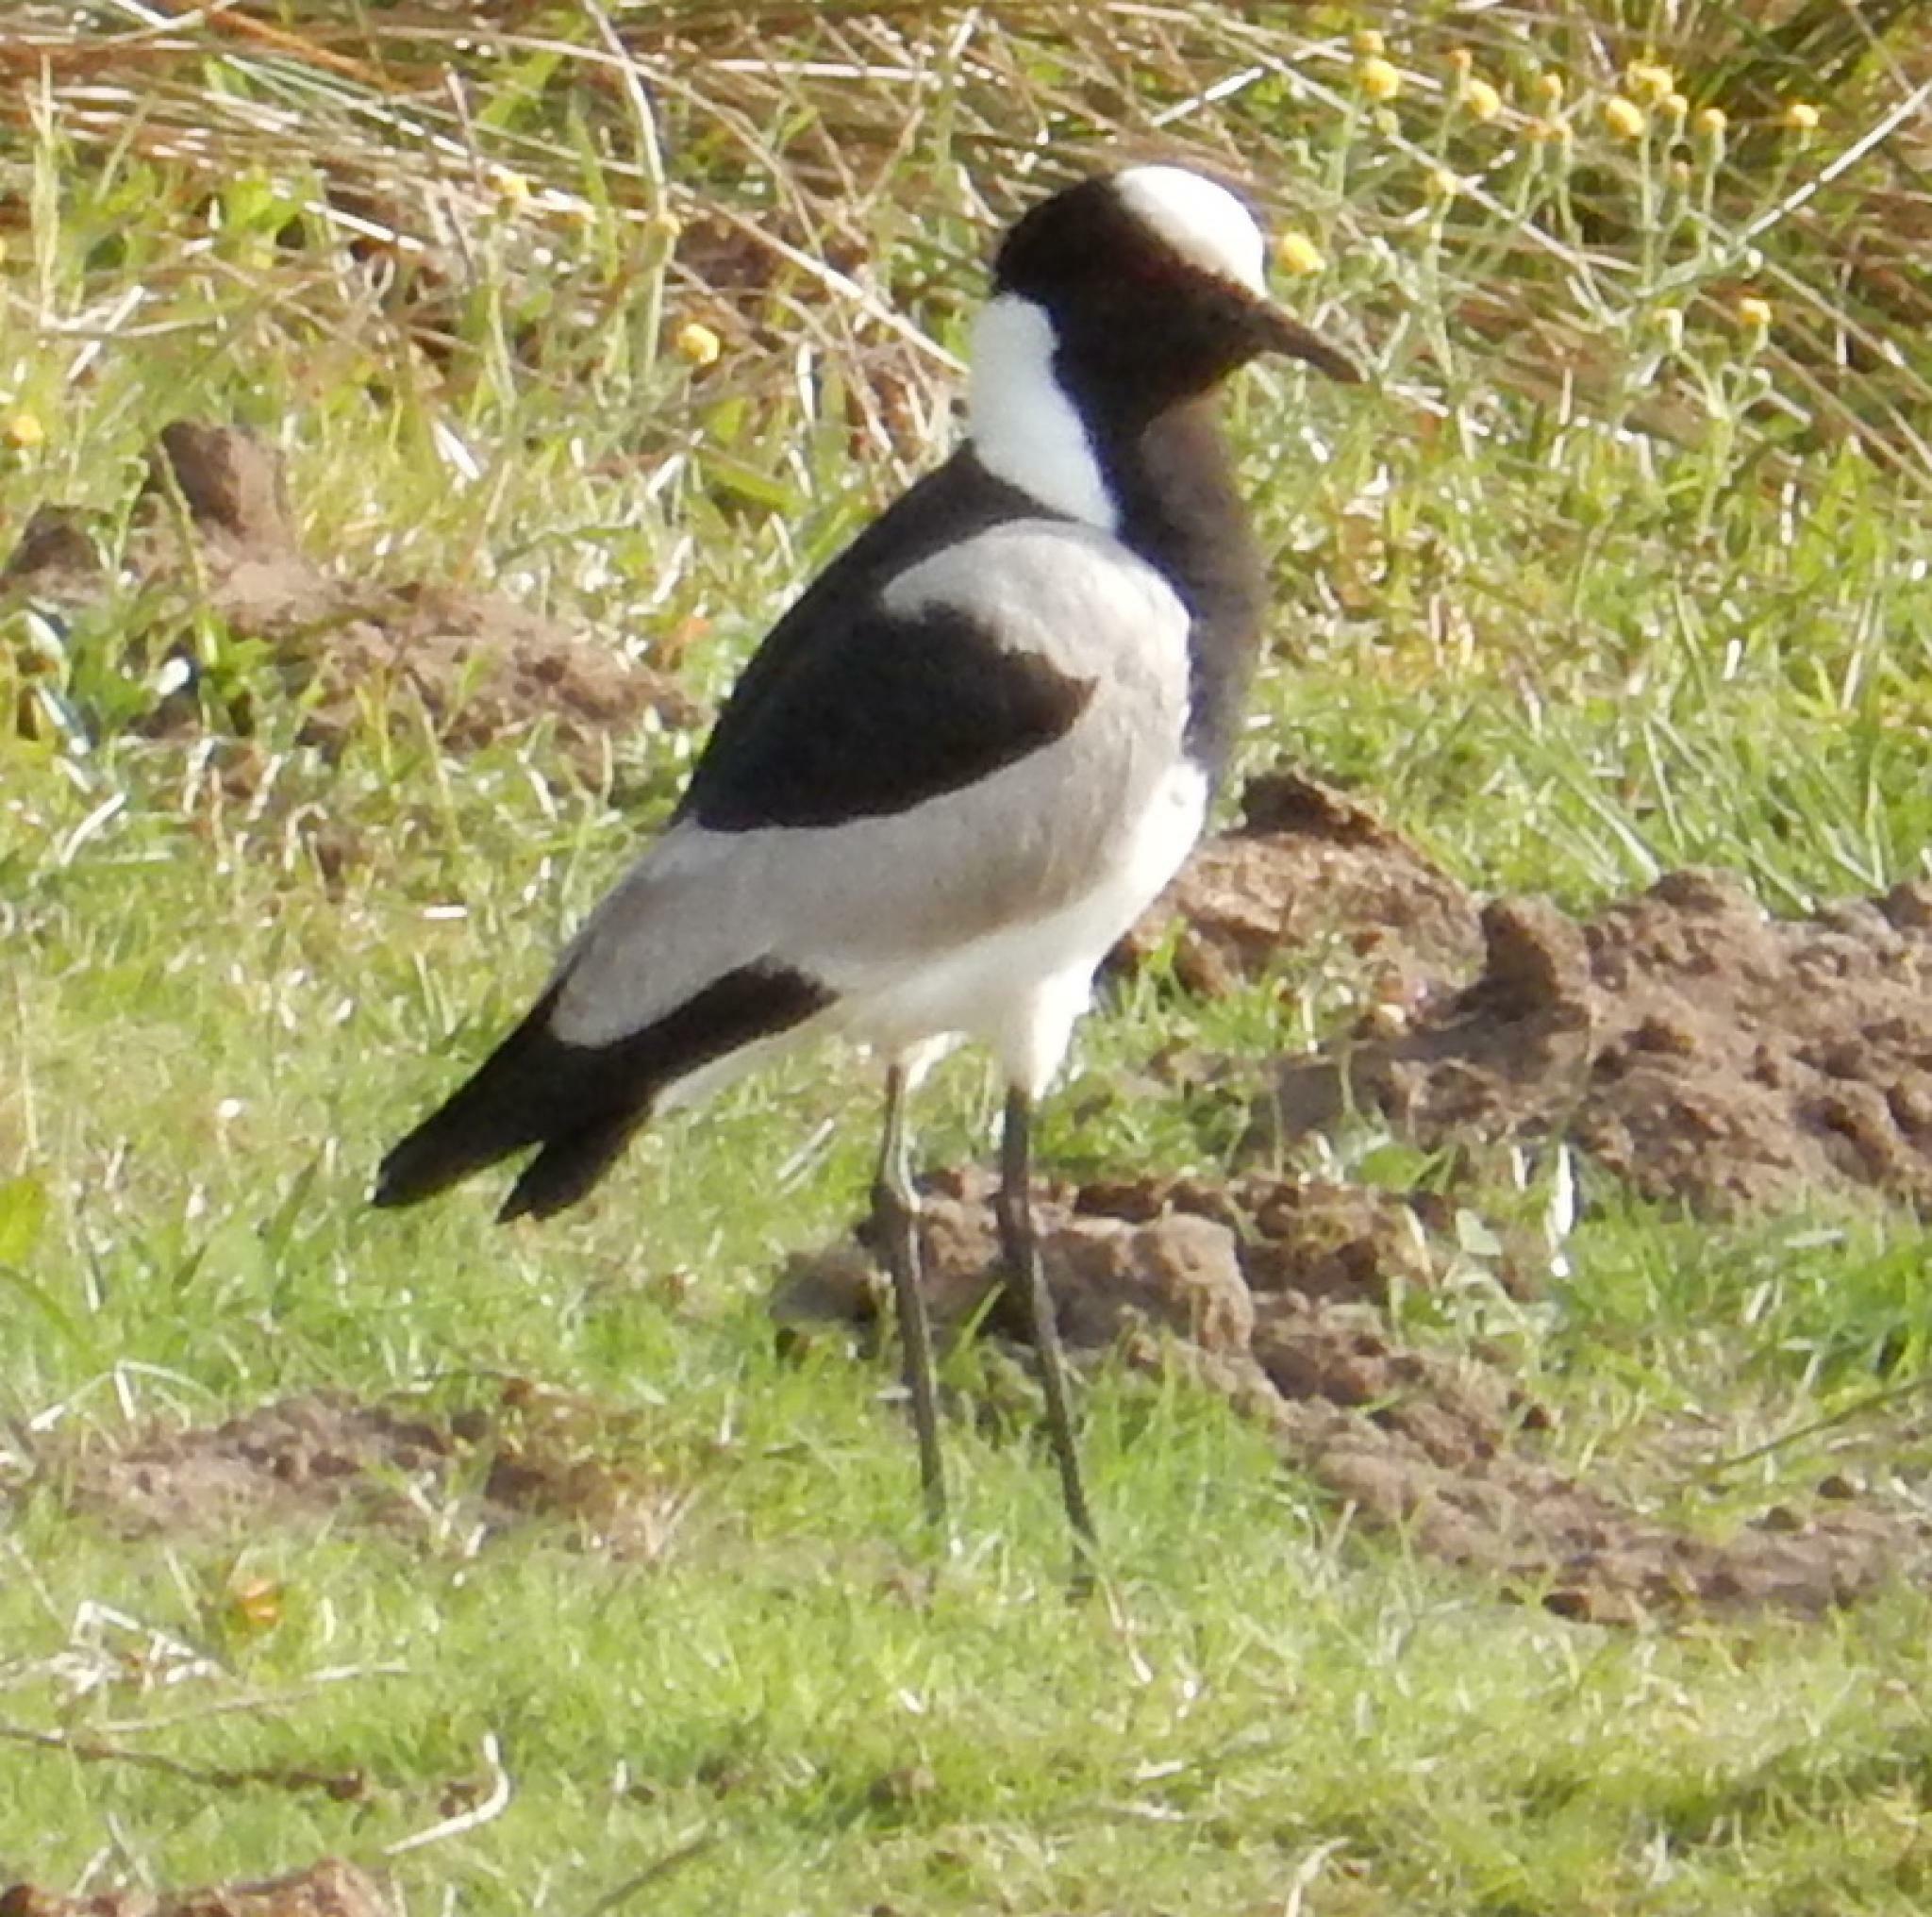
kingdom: Animalia
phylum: Chordata
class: Aves
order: Charadriiformes
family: Charadriidae
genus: Vanellus
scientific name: Vanellus armatus
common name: Blacksmith lapwing
